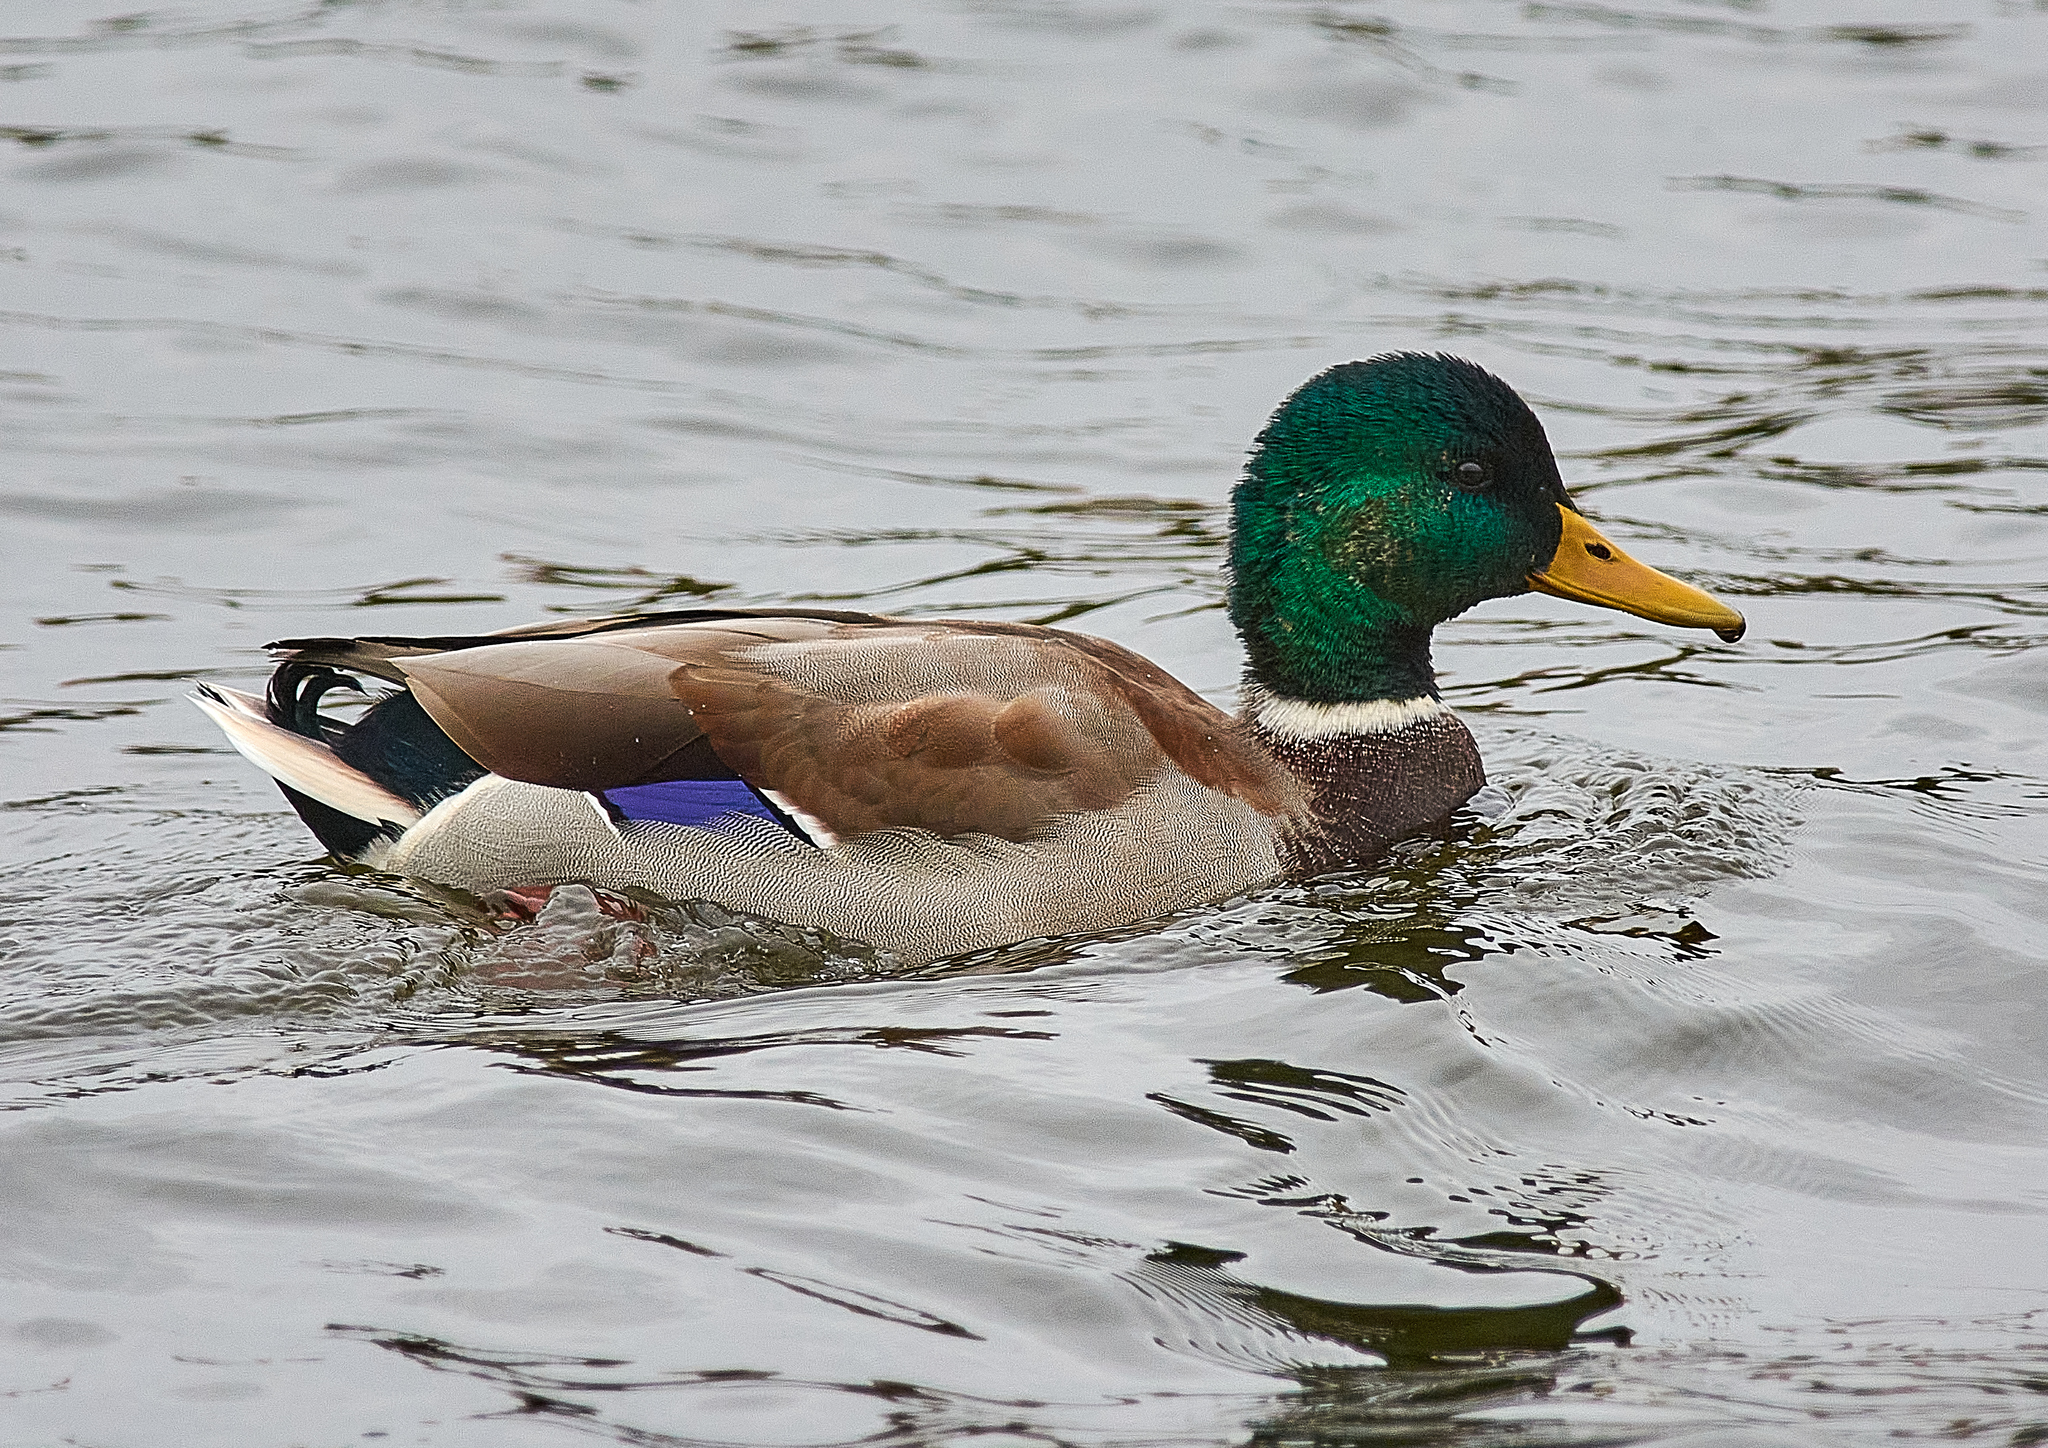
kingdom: Animalia
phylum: Chordata
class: Aves
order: Anseriformes
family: Anatidae
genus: Anas
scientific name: Anas platyrhynchos
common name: Mallard
